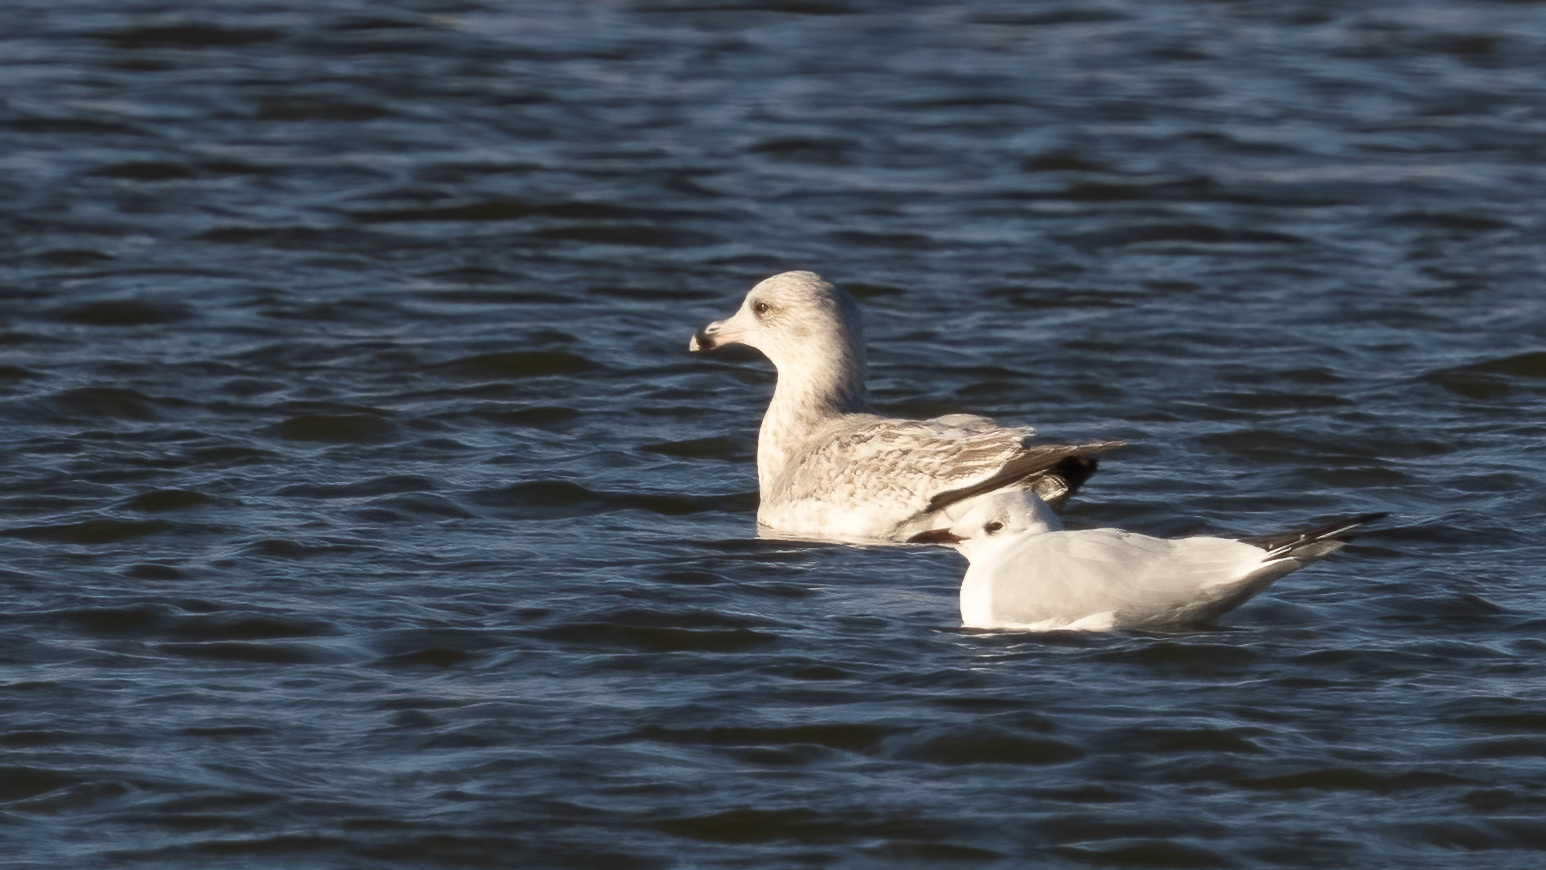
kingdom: Animalia
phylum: Chordata
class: Aves
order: Charadriiformes
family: Laridae
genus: Larus
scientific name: Larus argentatus
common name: Herring gull
